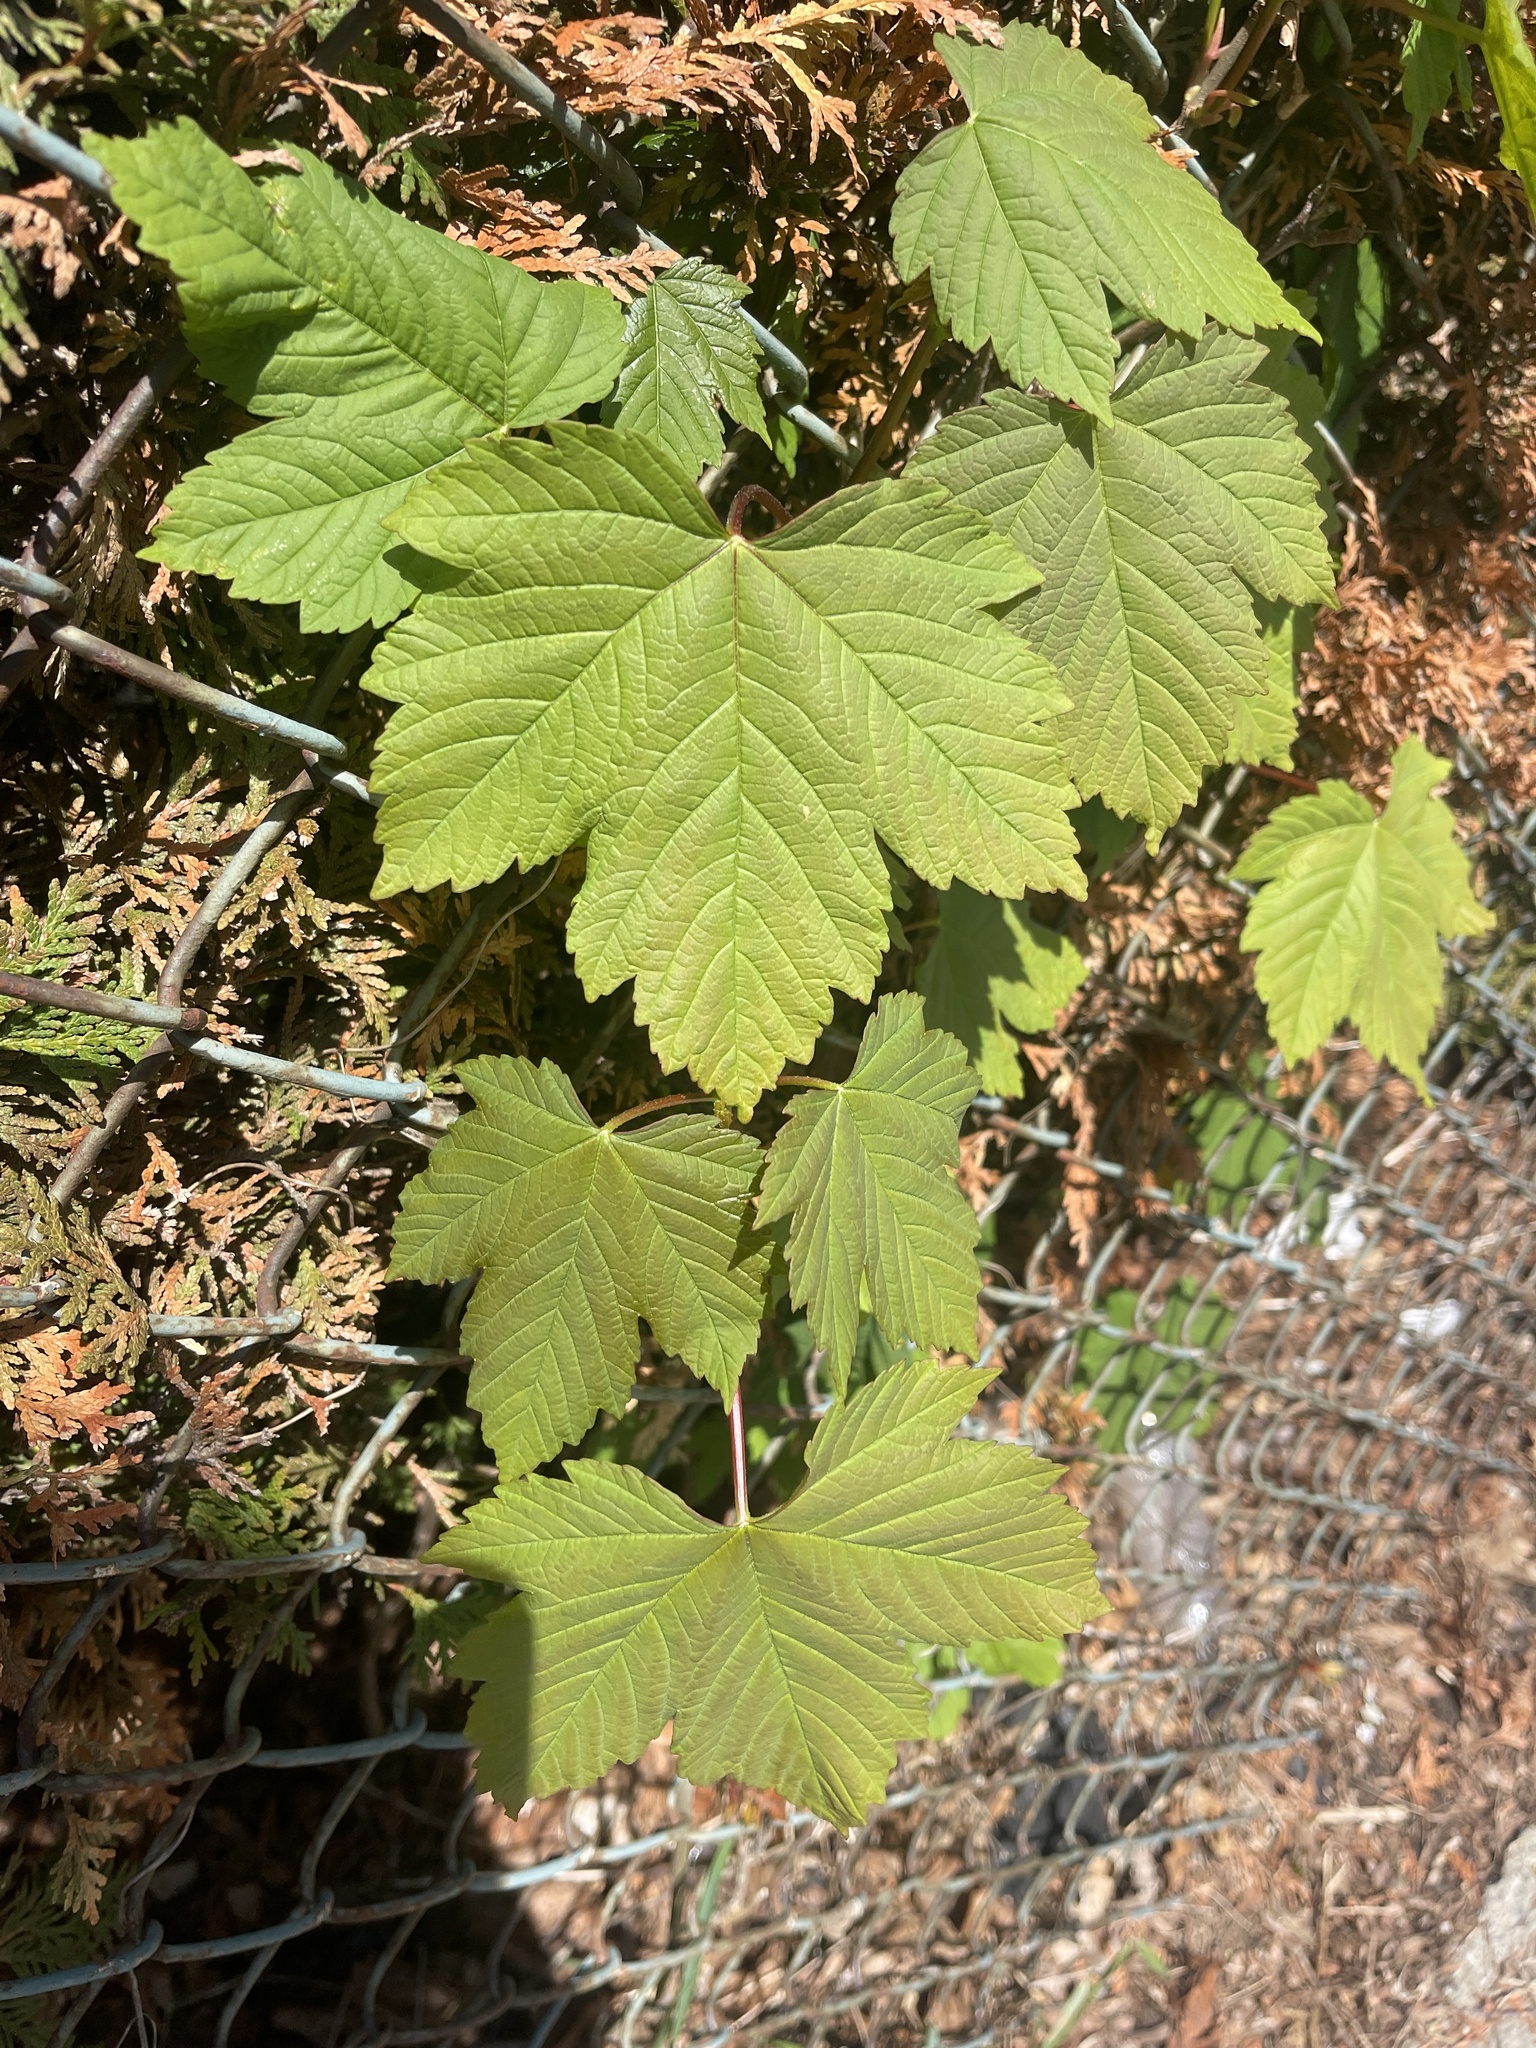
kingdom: Plantae
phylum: Tracheophyta
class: Magnoliopsida
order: Sapindales
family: Sapindaceae
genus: Acer
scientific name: Acer pseudoplatanus
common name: Sycamore
